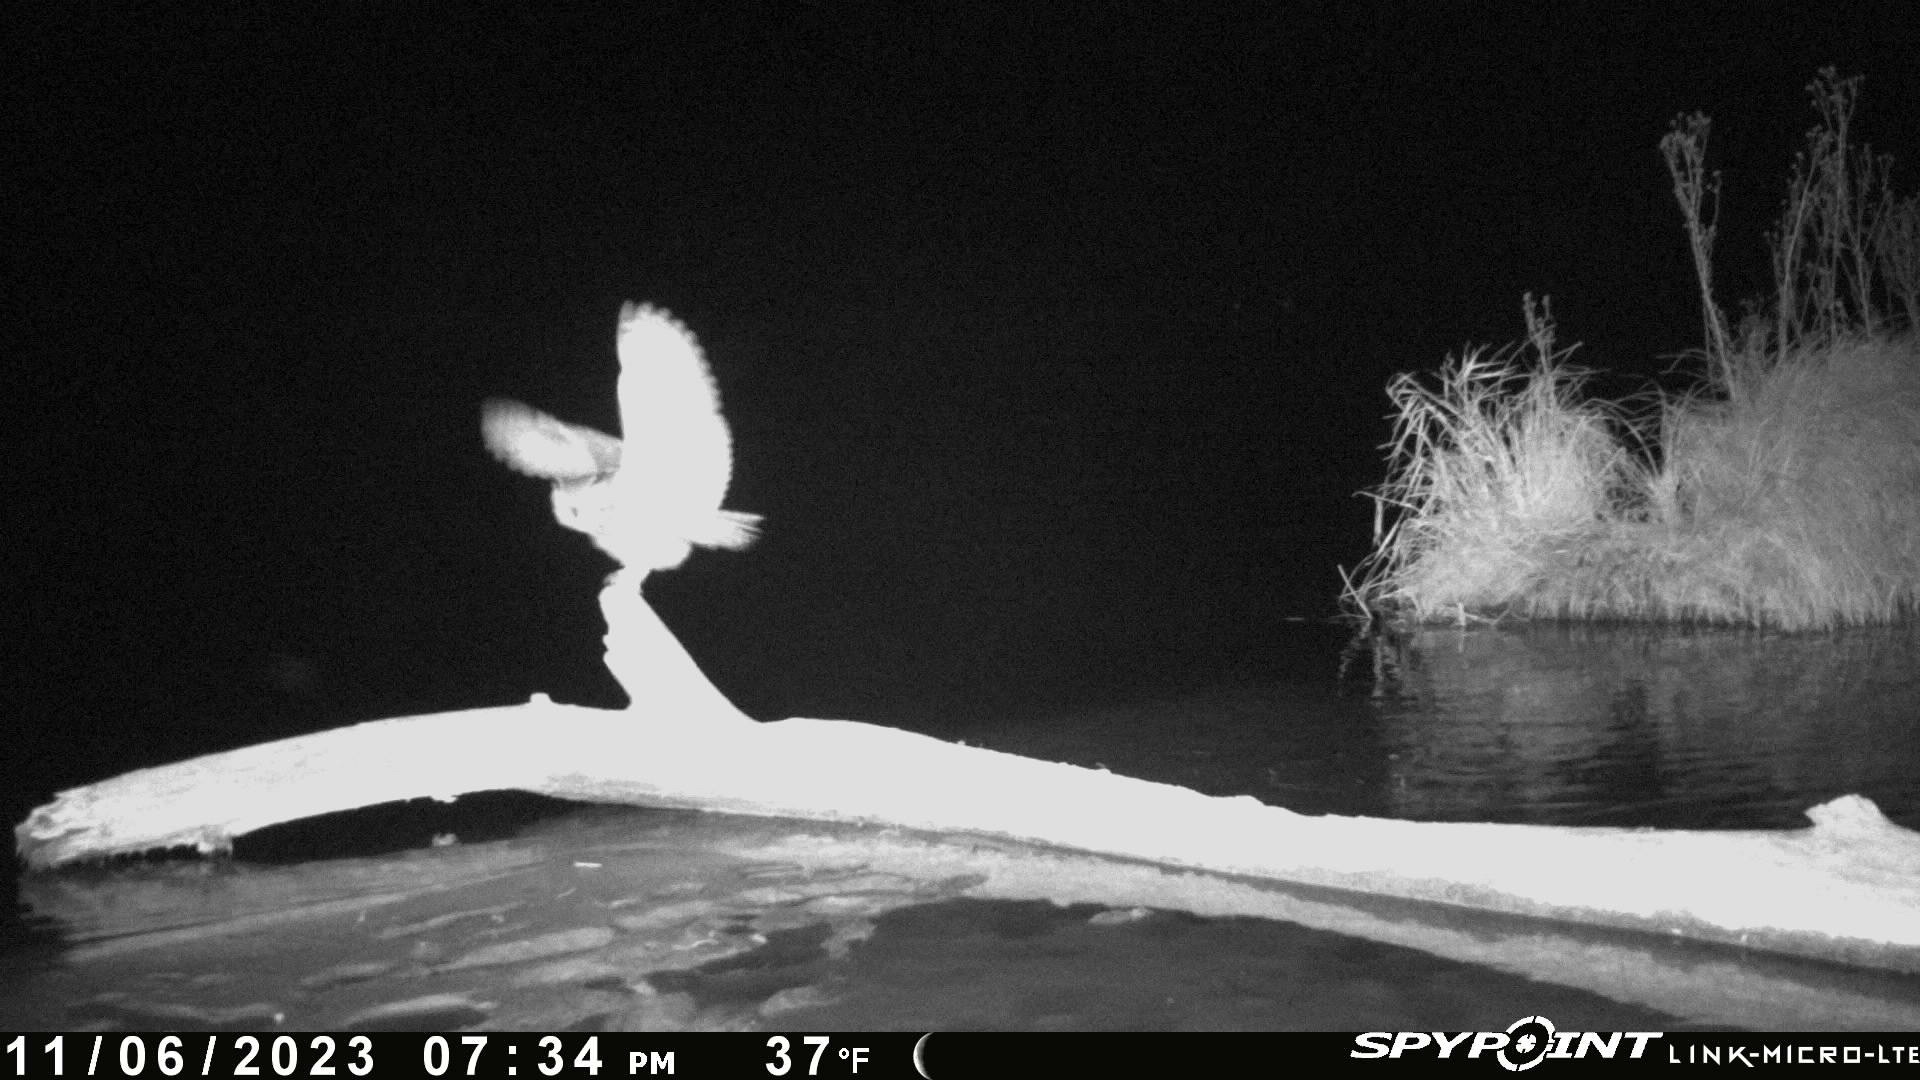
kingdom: Animalia
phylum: Chordata
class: Aves
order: Strigiformes
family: Strigidae
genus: Bubo
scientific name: Bubo virginianus
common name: Great horned owl
